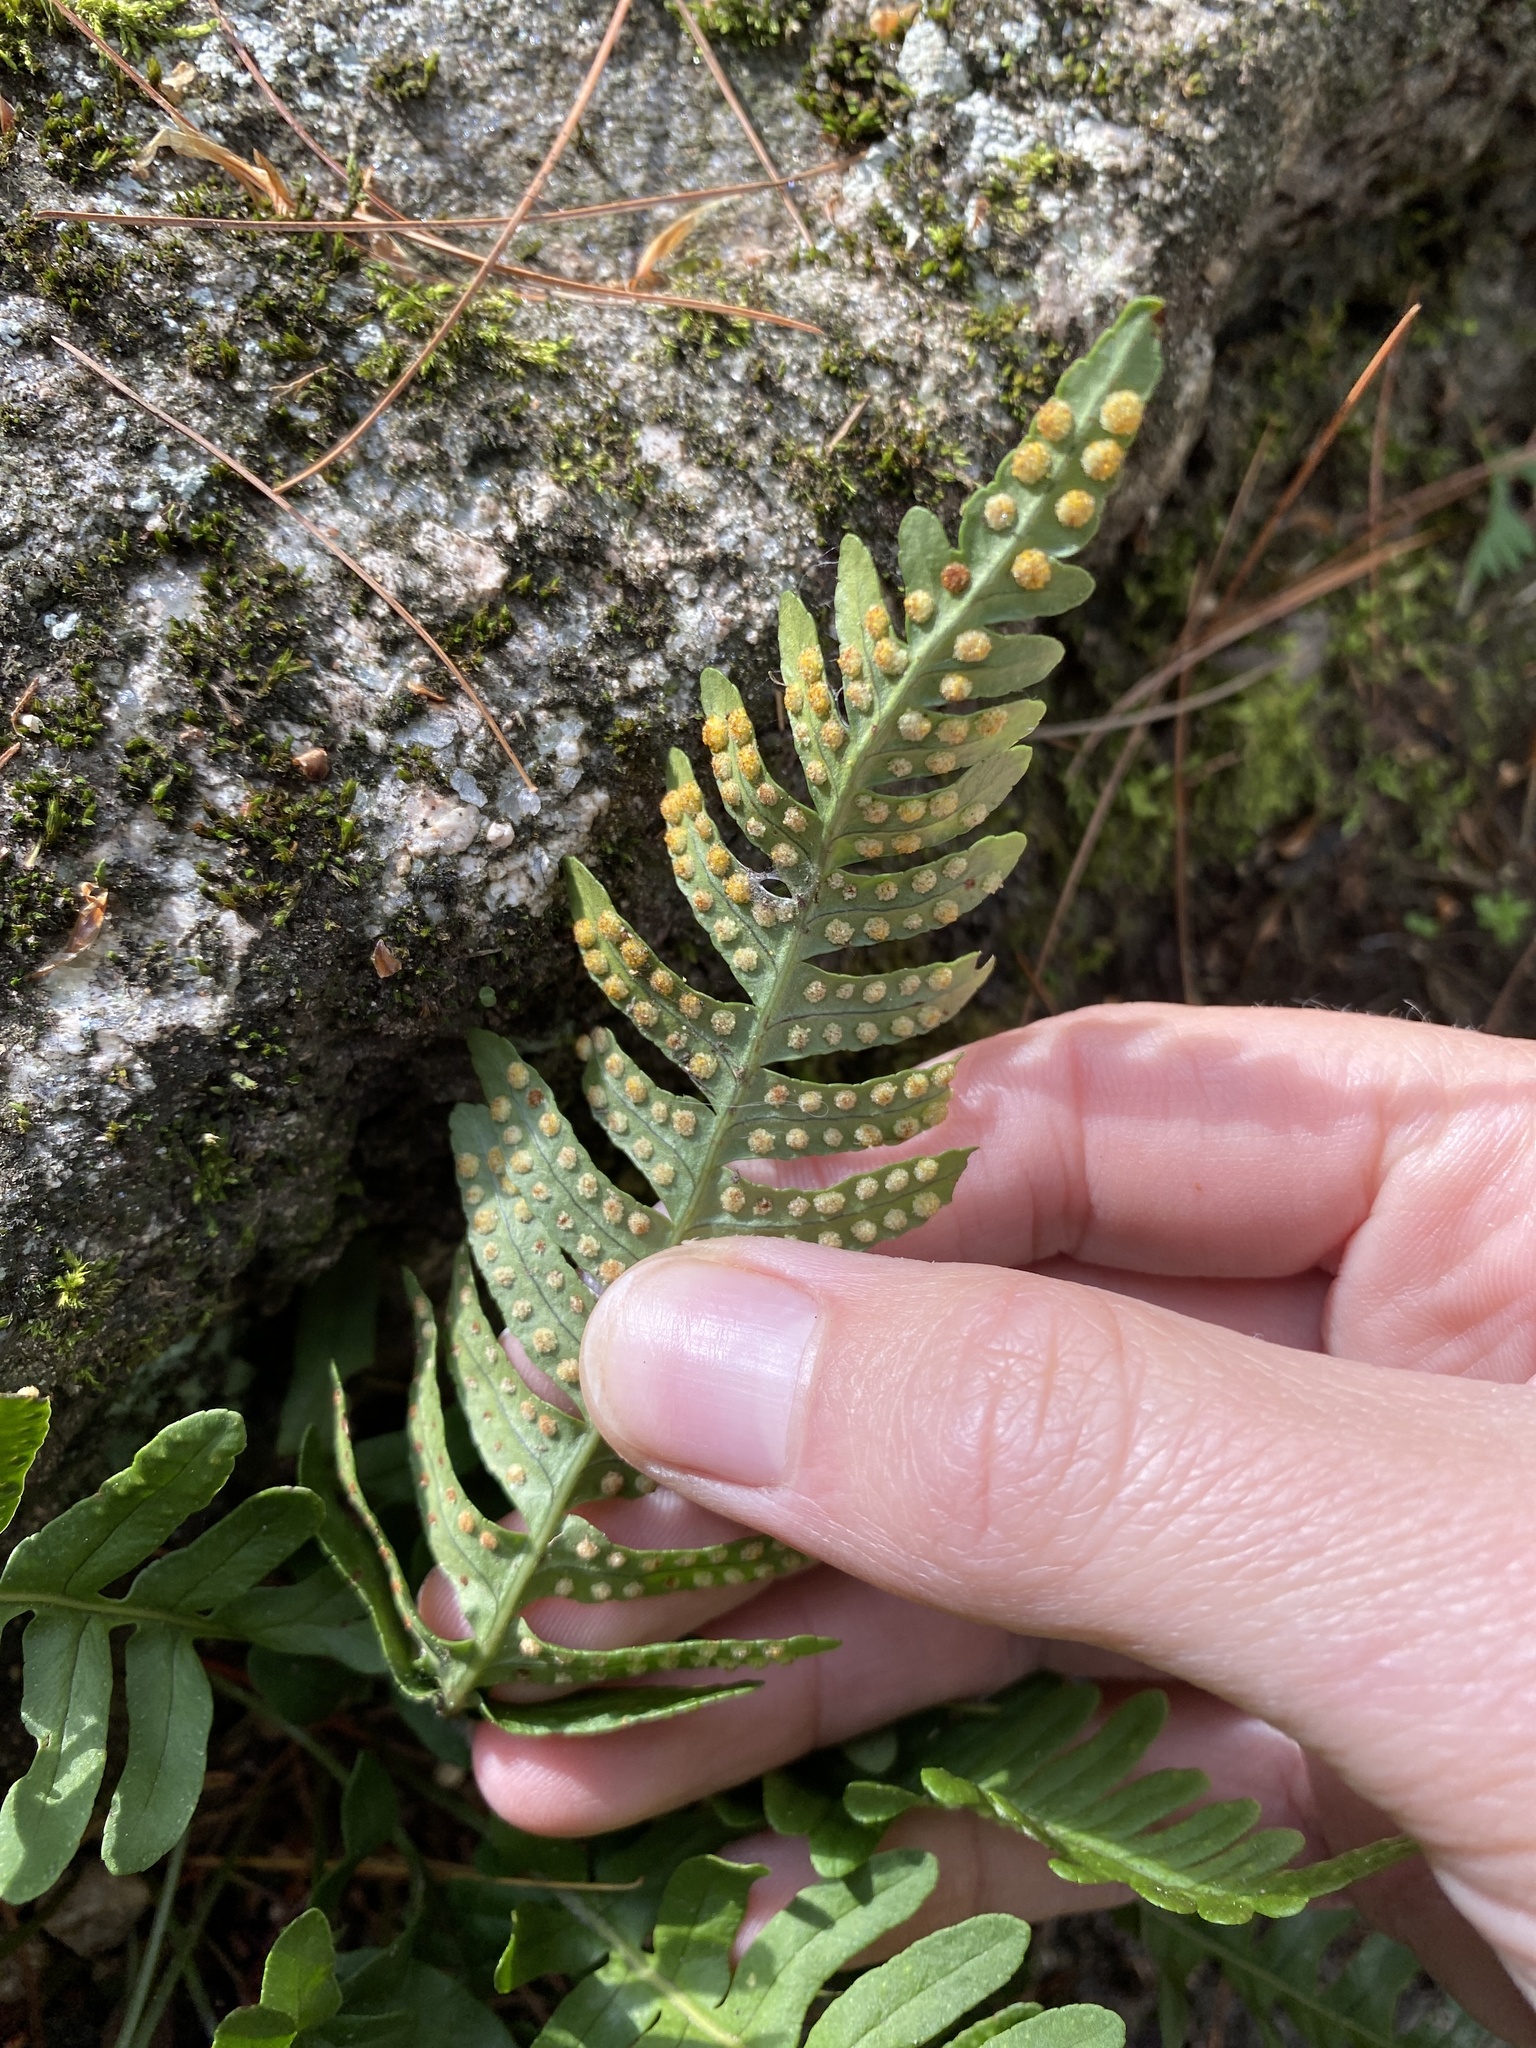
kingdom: Plantae
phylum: Tracheophyta
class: Polypodiopsida
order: Polypodiales
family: Polypodiaceae
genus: Polypodium
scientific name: Polypodium virginianum
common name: American wall fern
